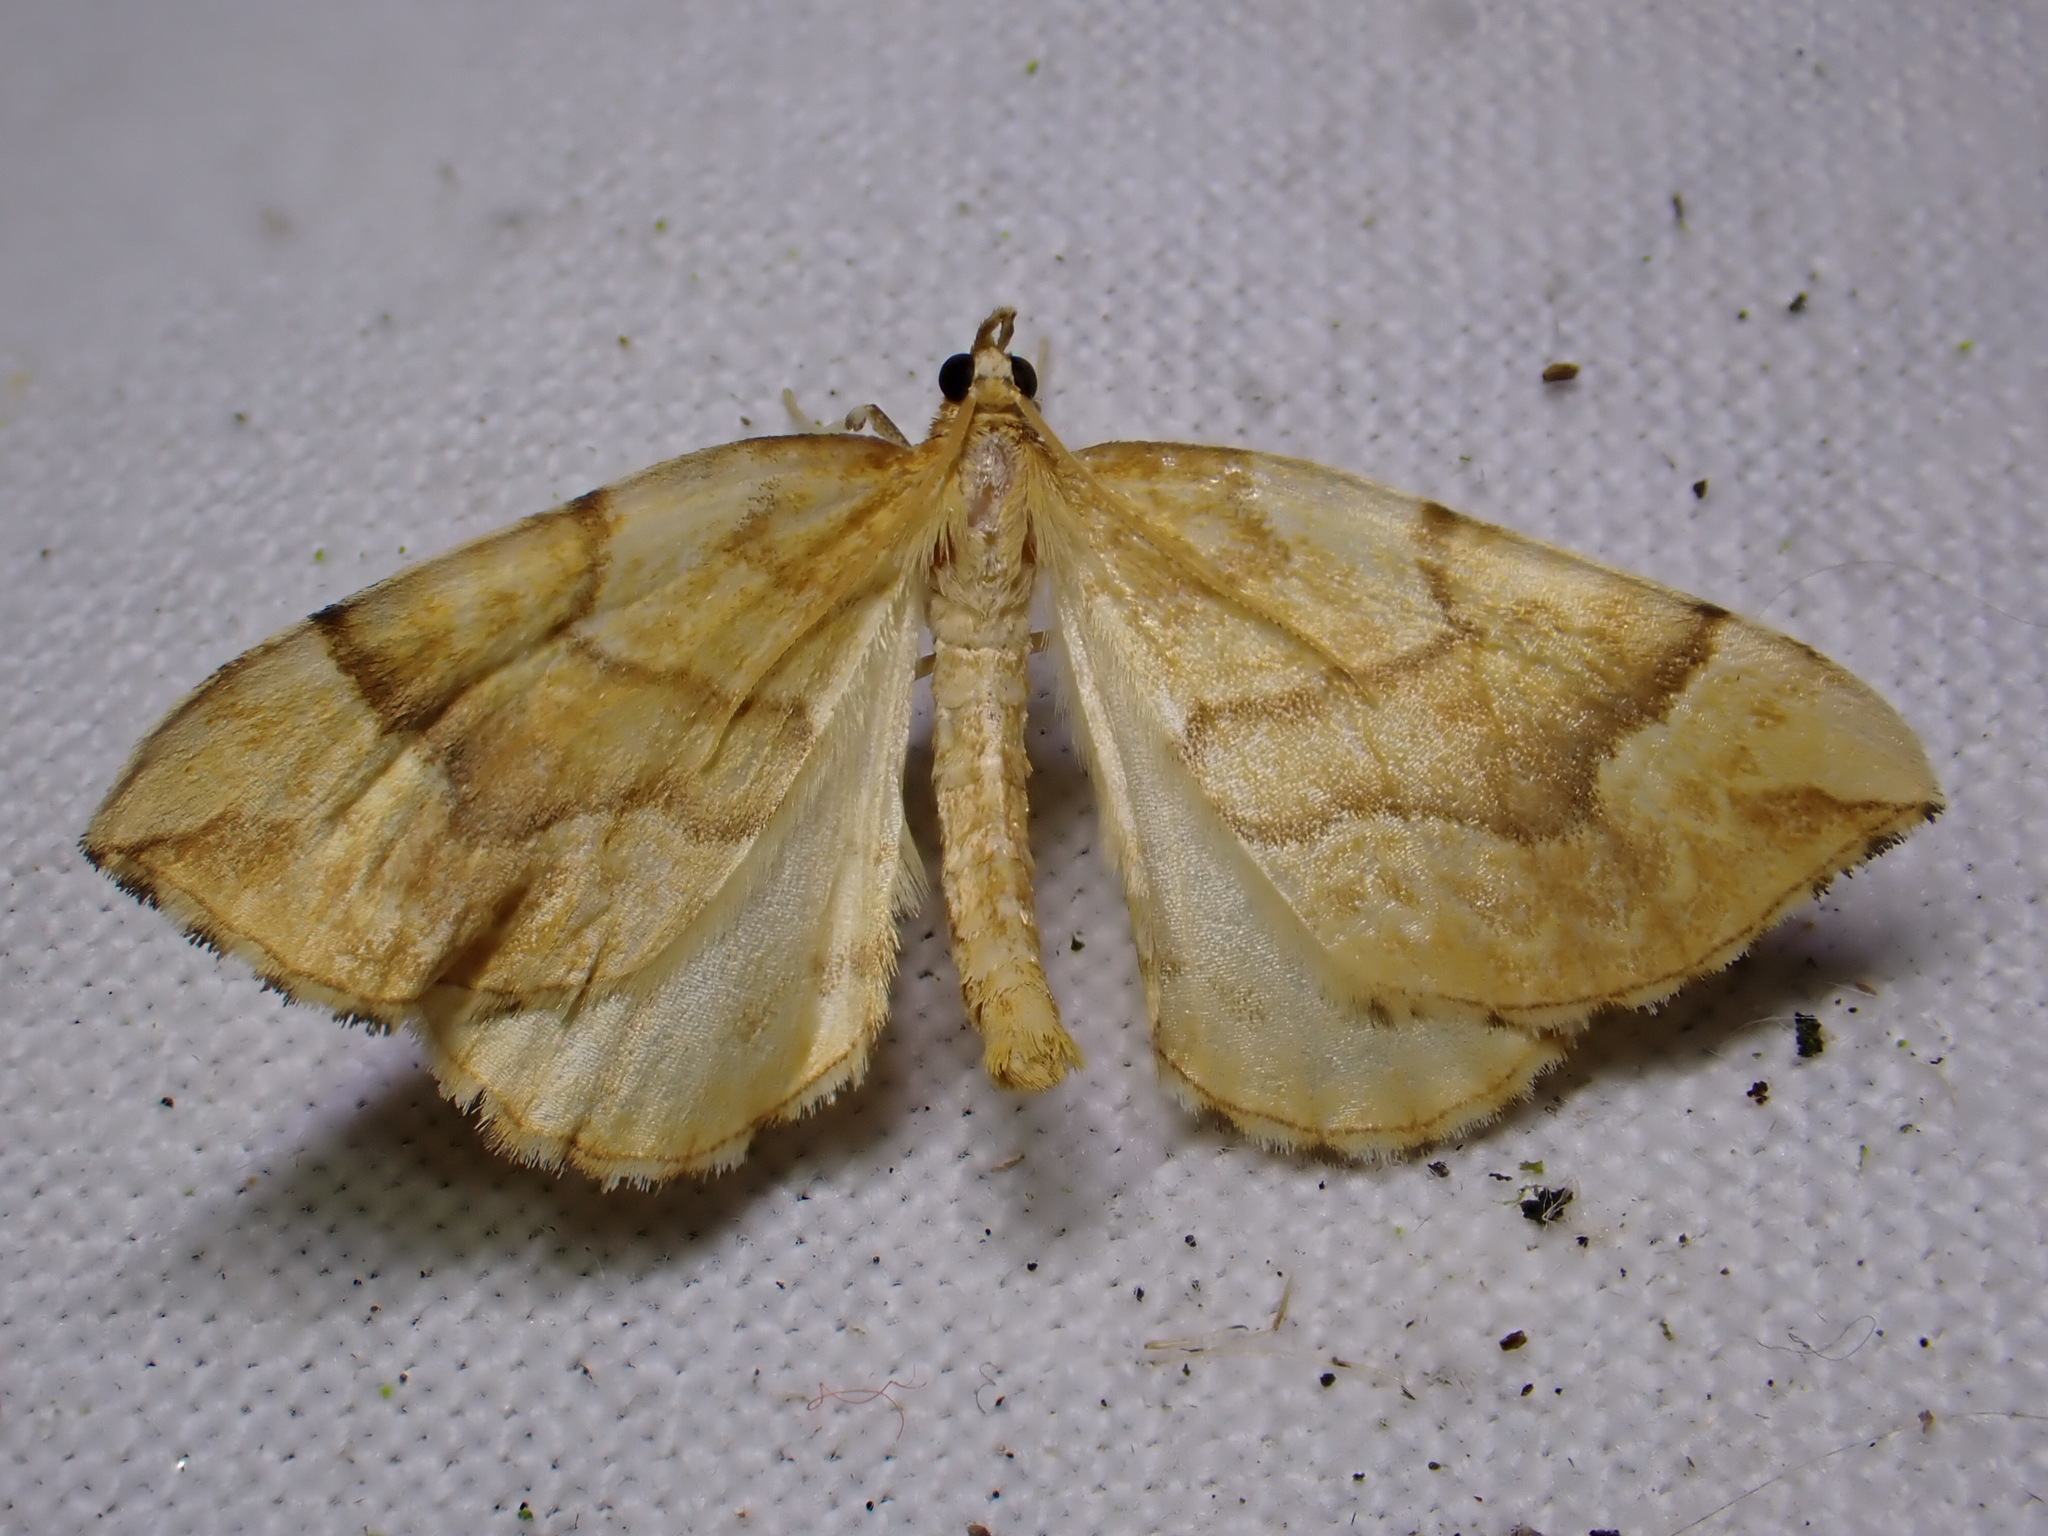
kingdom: Animalia
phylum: Arthropoda
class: Insecta
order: Lepidoptera
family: Geometridae
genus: Eulithis
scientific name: Eulithis mellinata
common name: Spinach
